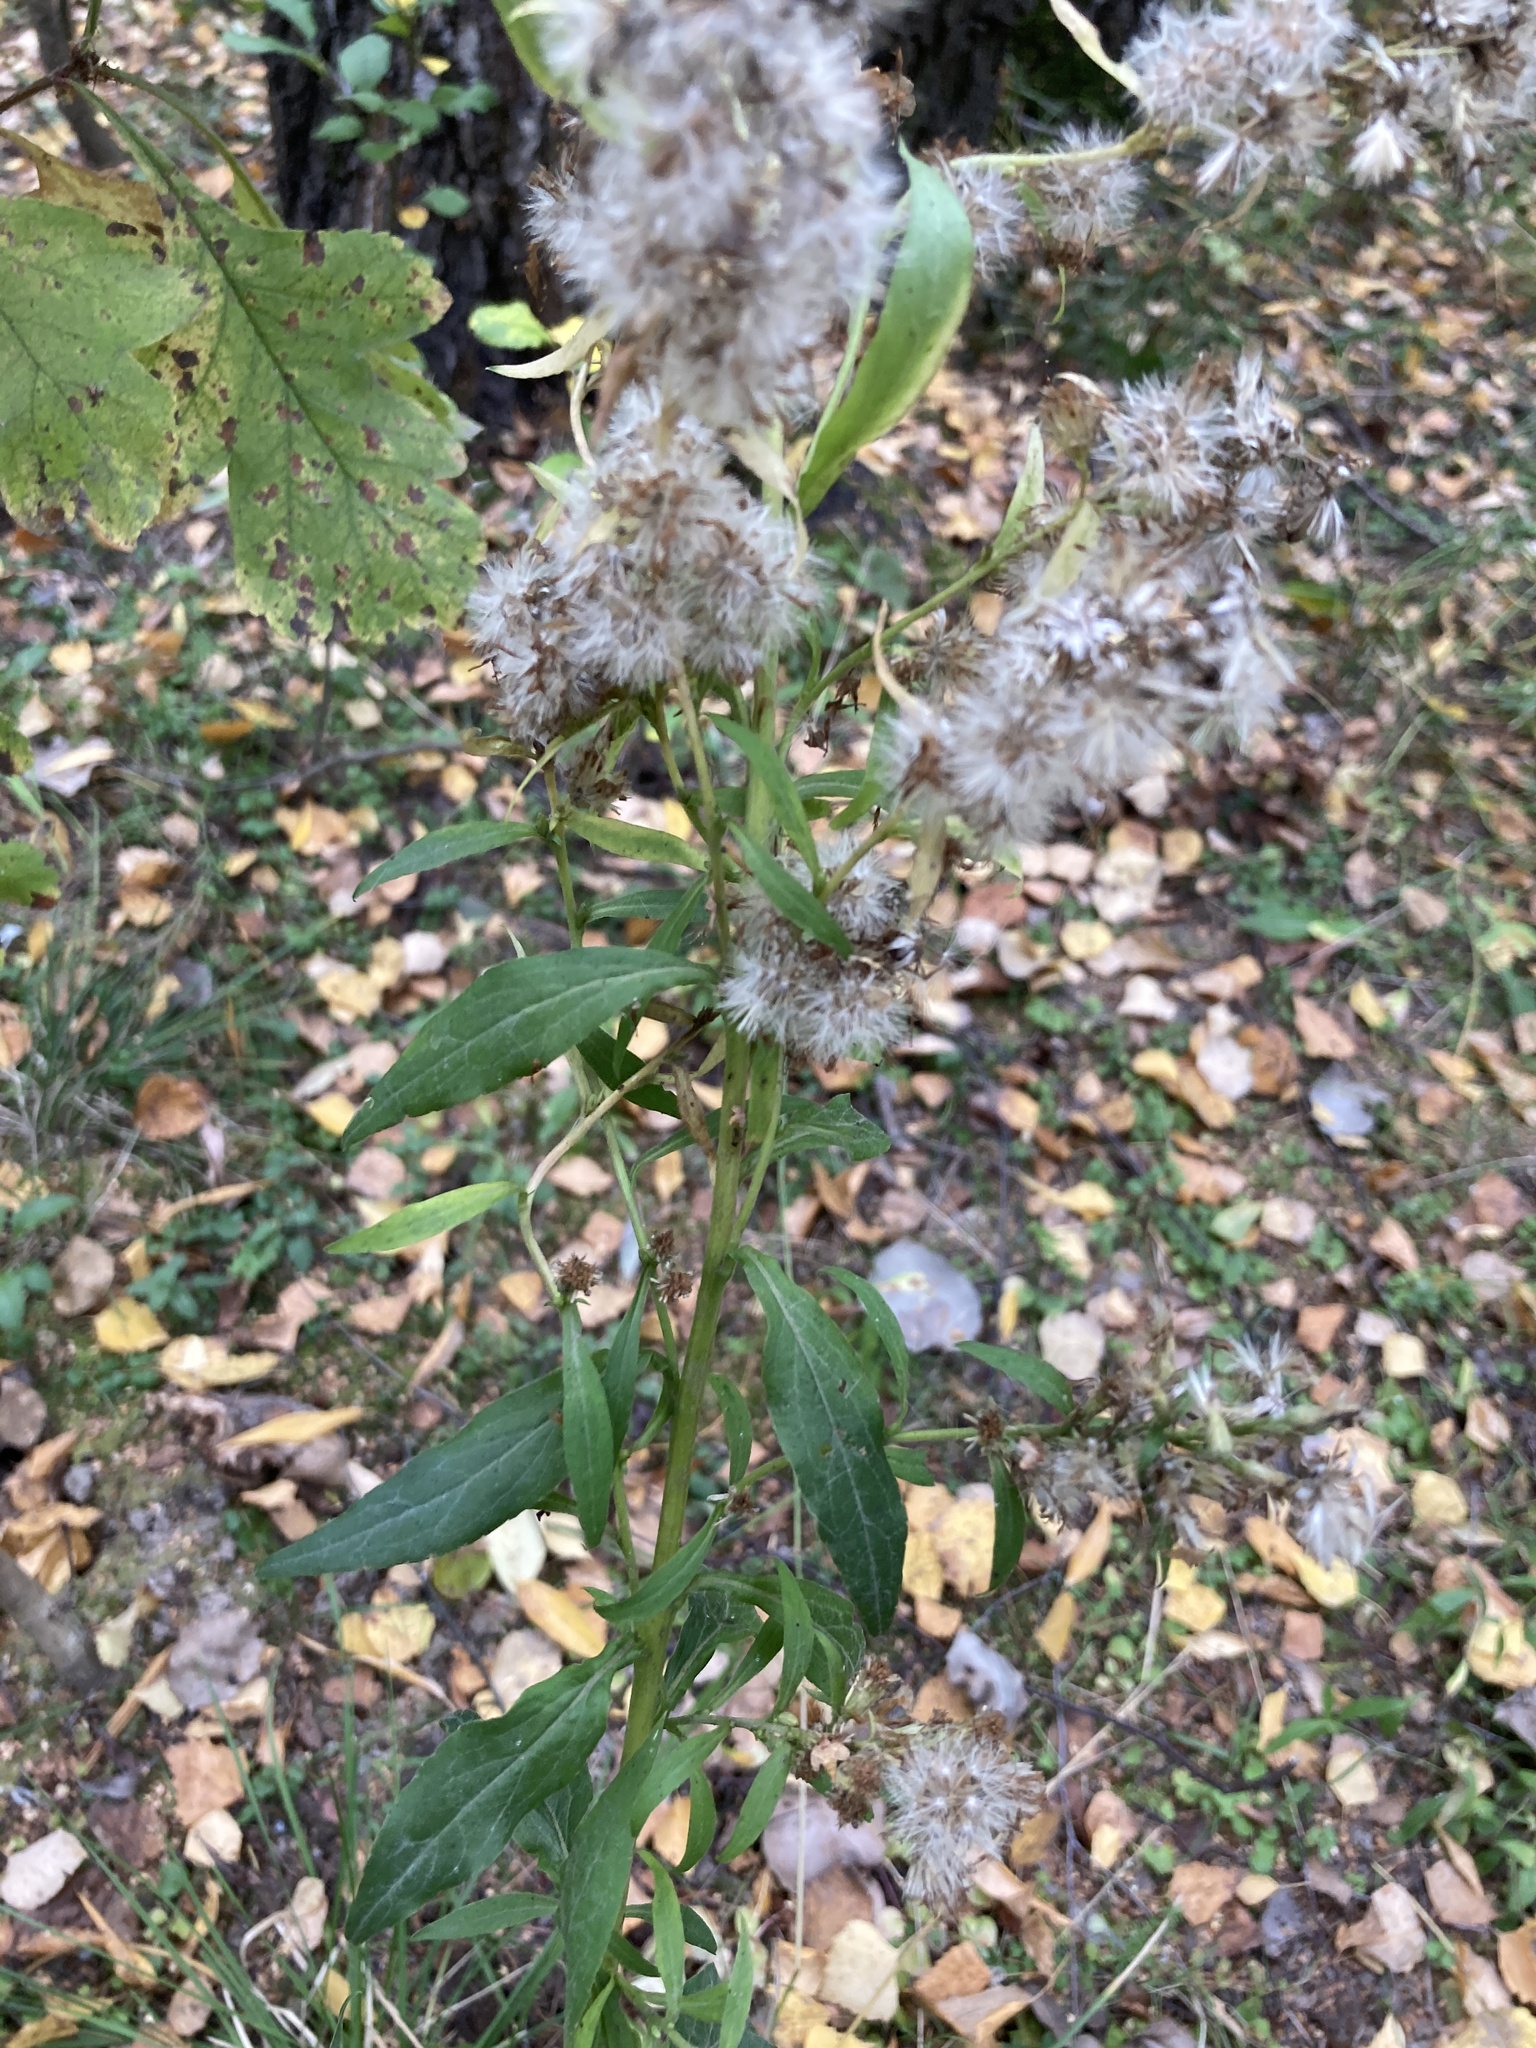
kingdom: Plantae
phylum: Tracheophyta
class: Magnoliopsida
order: Asterales
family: Asteraceae
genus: Solidago
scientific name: Solidago virgaurea
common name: Goldenrod
